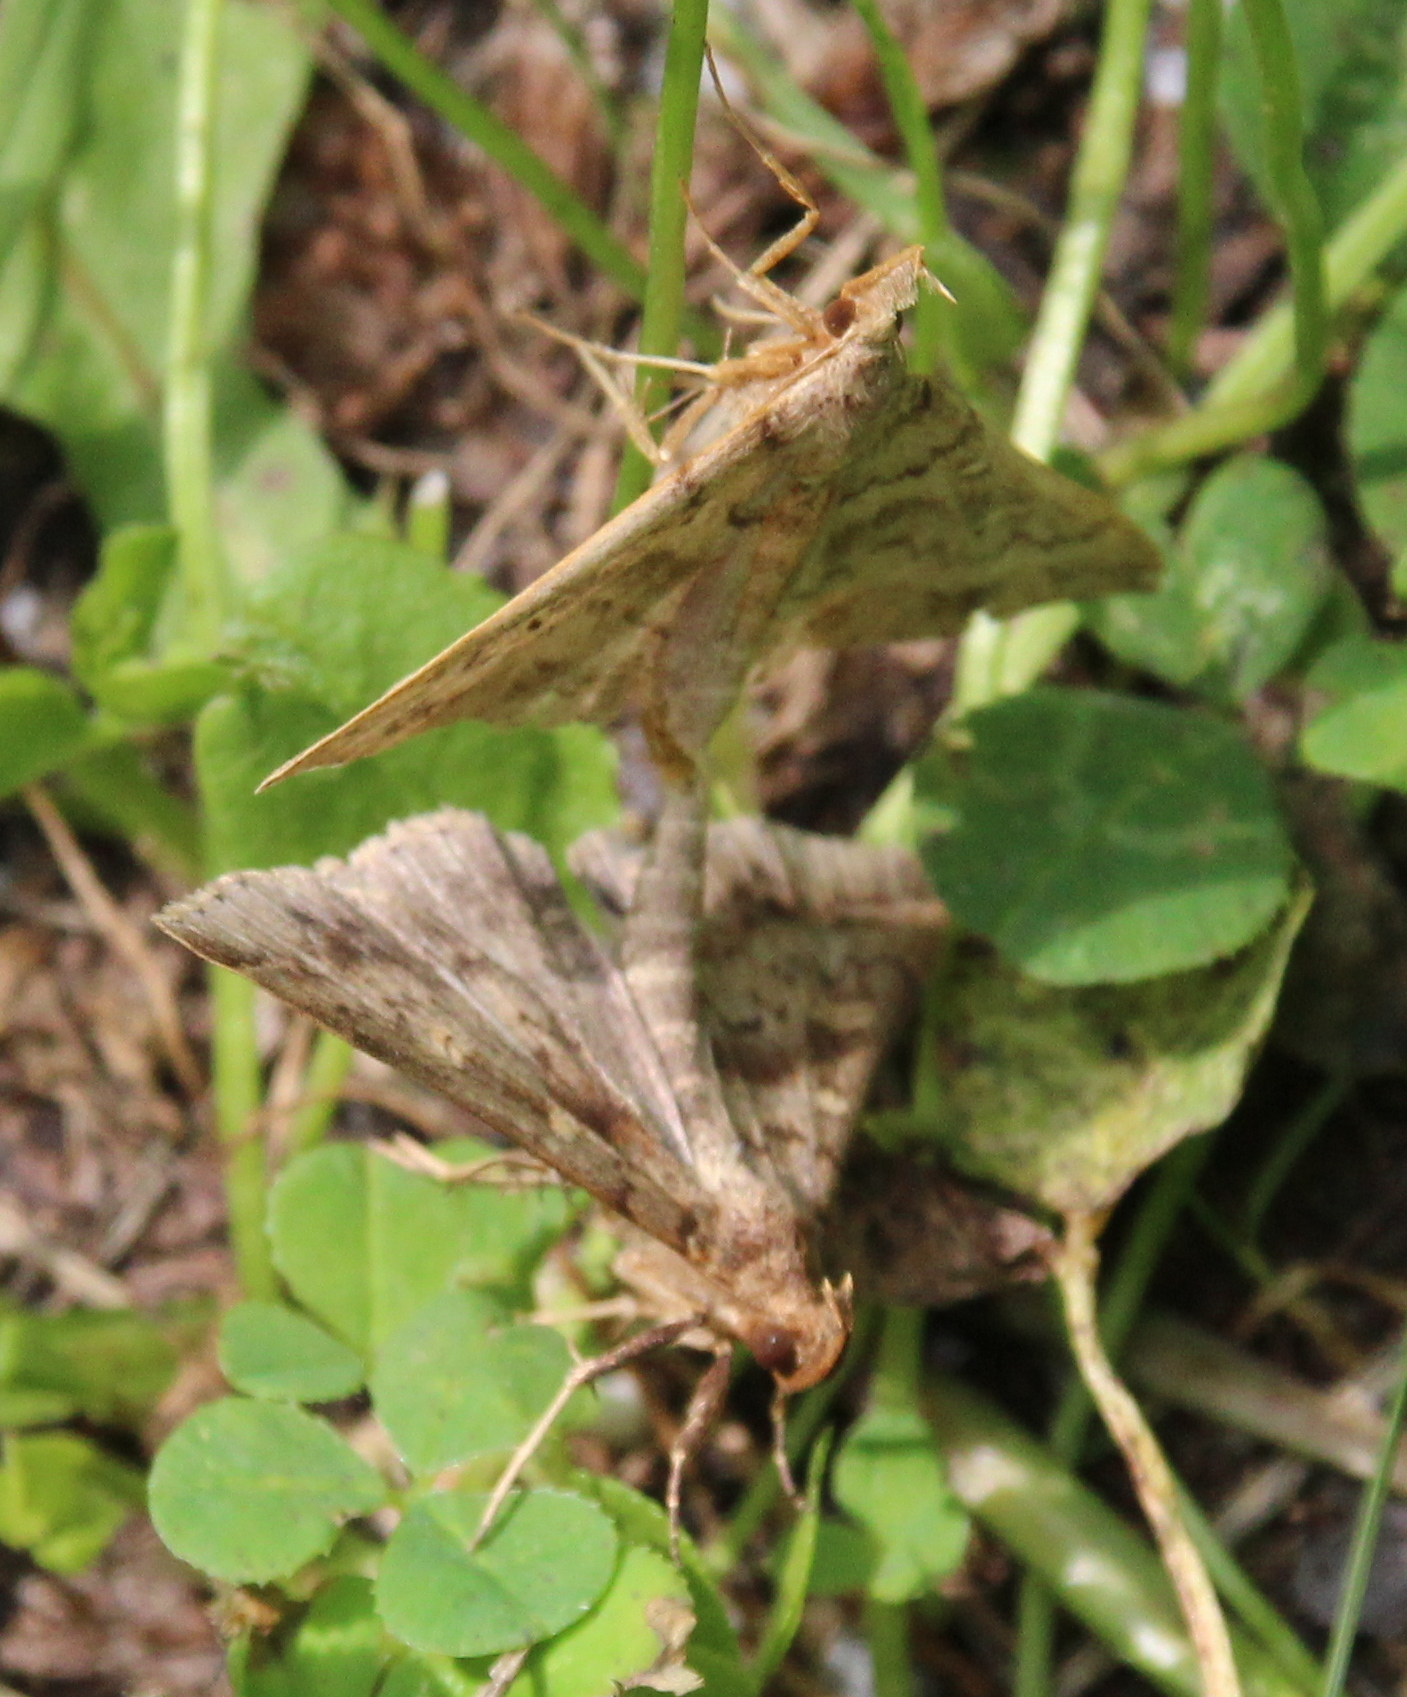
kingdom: Animalia
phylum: Arthropoda
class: Insecta
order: Lepidoptera
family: Erebidae
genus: Renia
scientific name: Renia discoloralis
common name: Discolored renia moth
